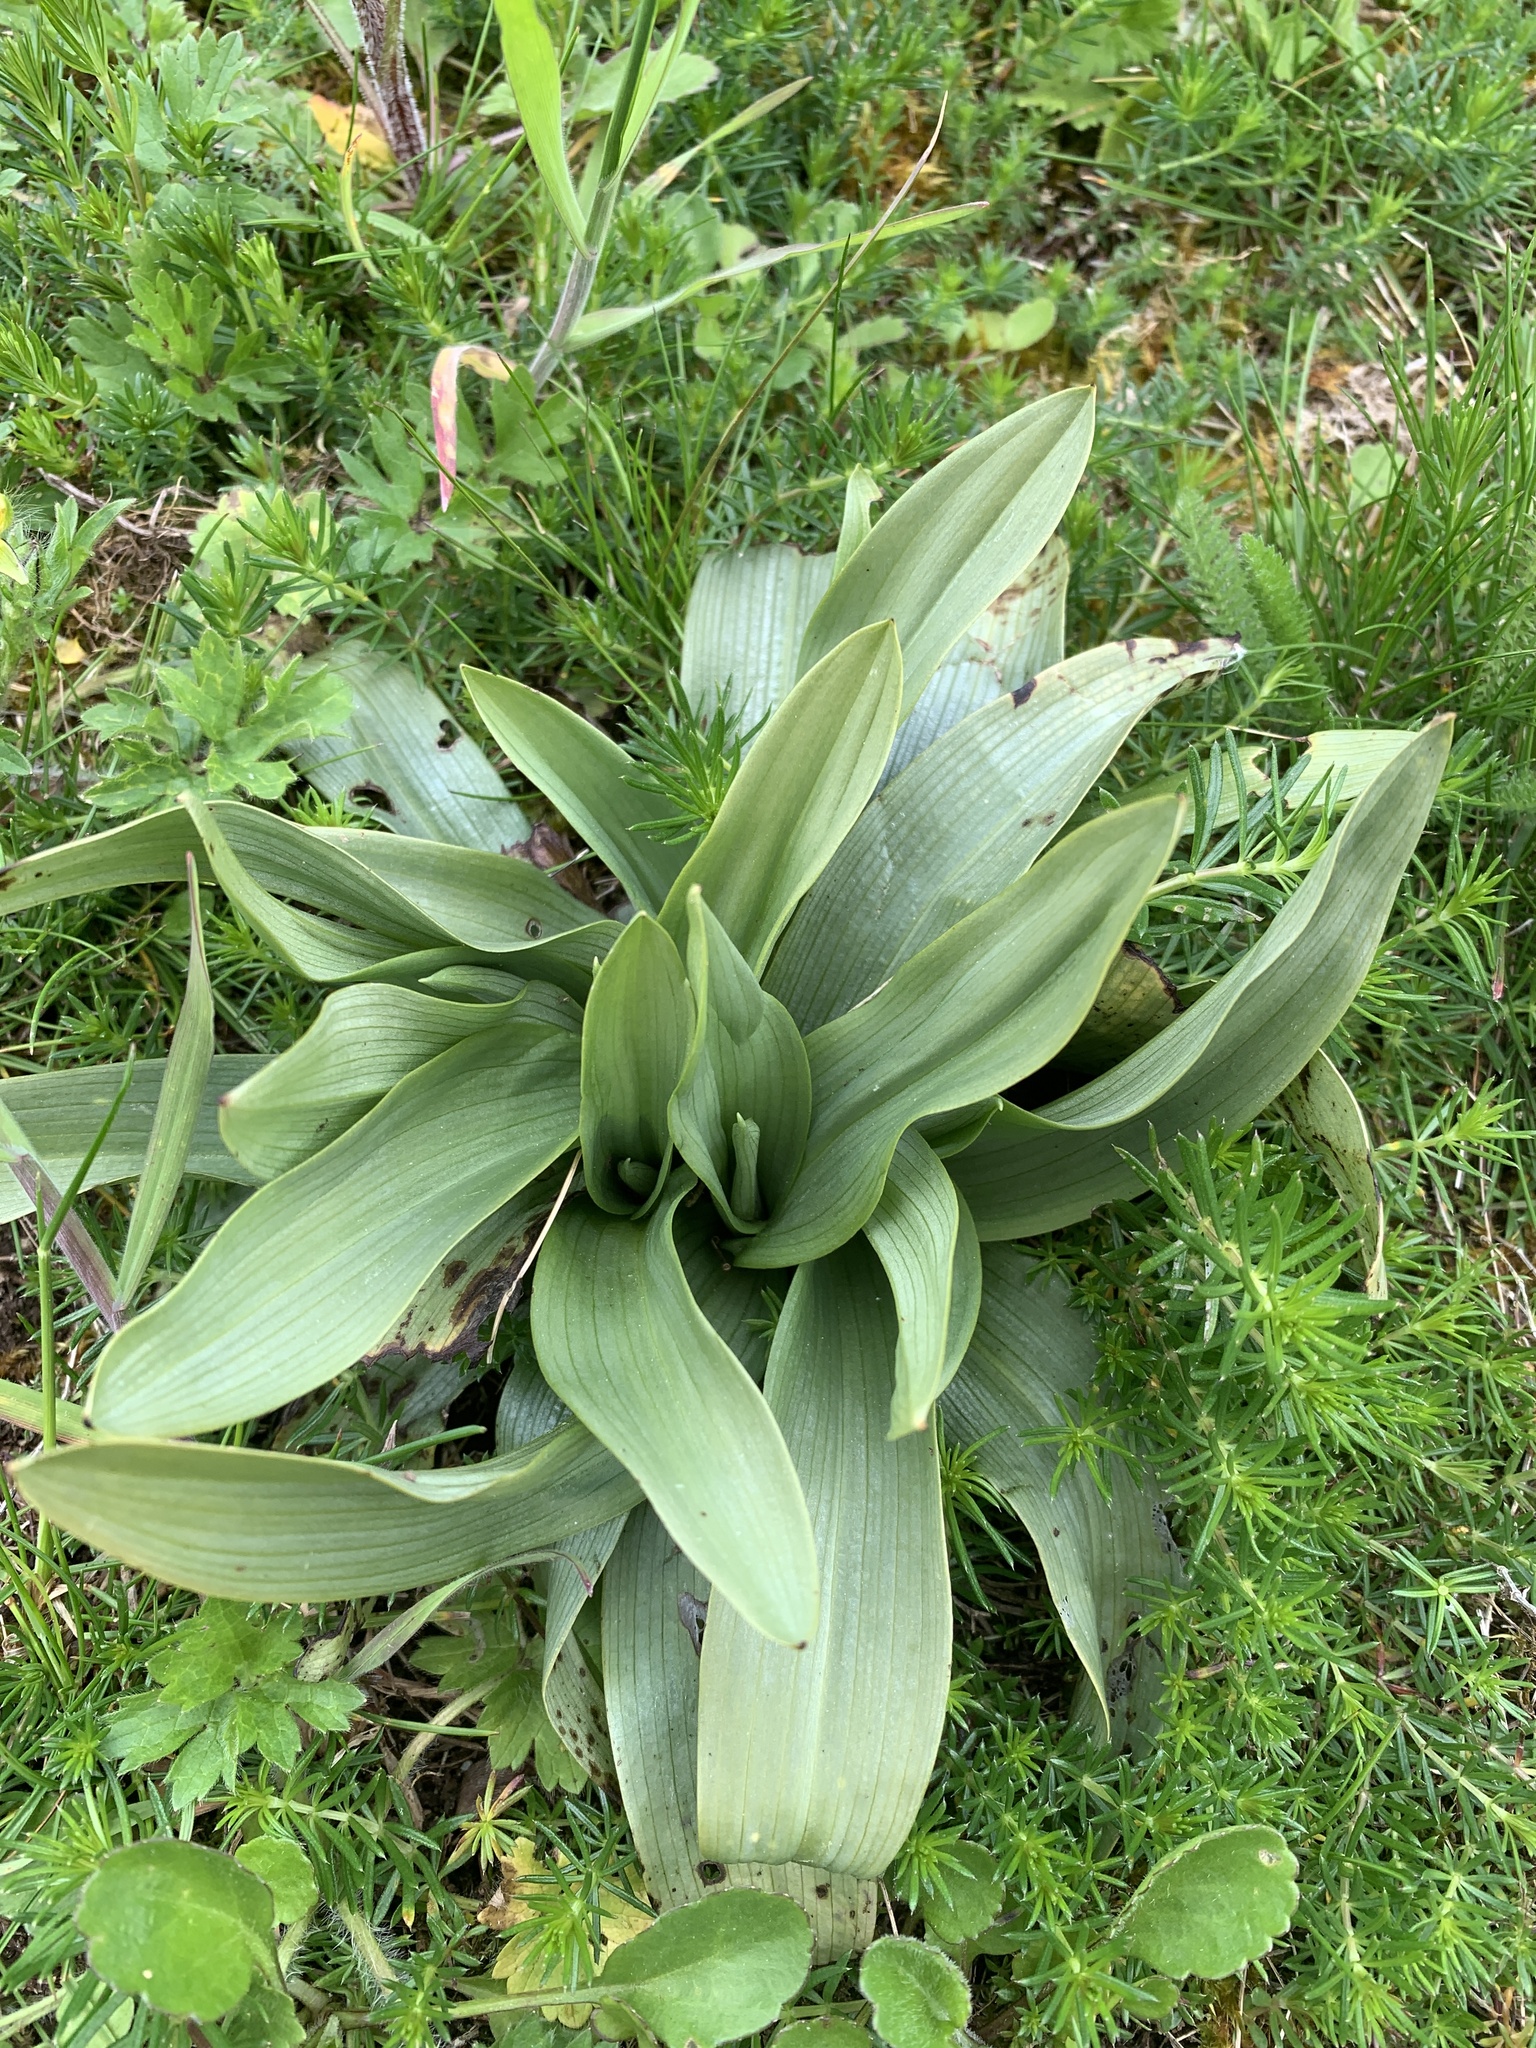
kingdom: Plantae
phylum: Tracheophyta
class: Liliopsida
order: Asparagales
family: Orchidaceae
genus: Ophrys
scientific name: Ophrys apifera
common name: Bee orchid
